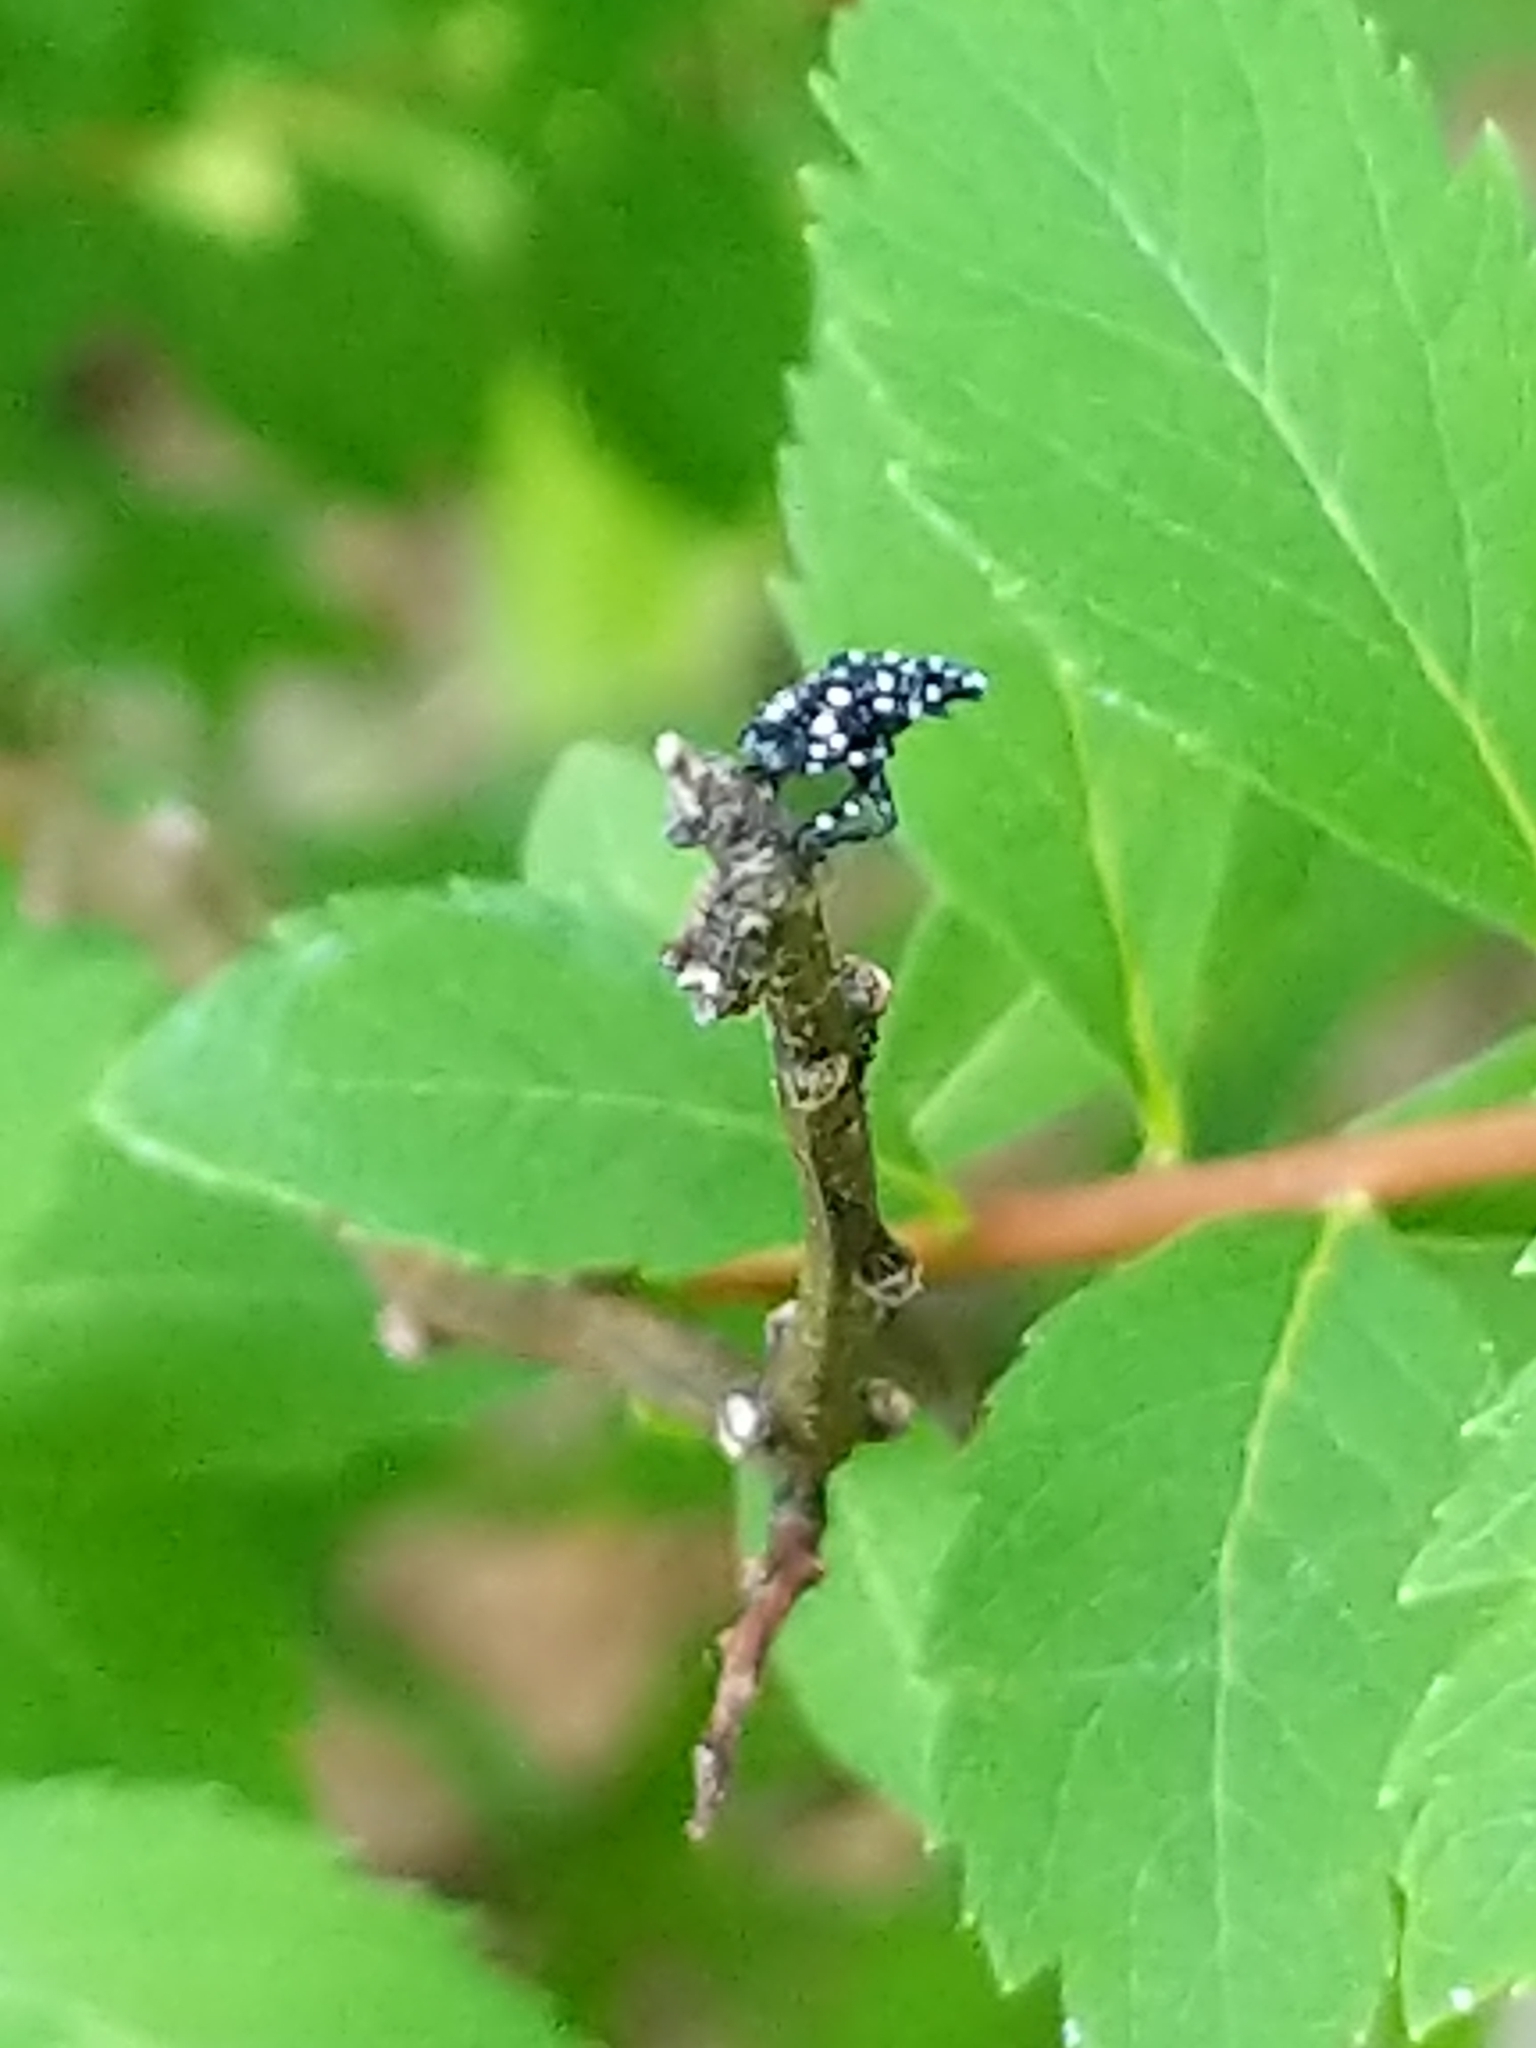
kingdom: Animalia
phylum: Arthropoda
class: Insecta
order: Hemiptera
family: Fulgoridae
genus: Lycorma
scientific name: Lycorma delicatula
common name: Spotted lanternfly
